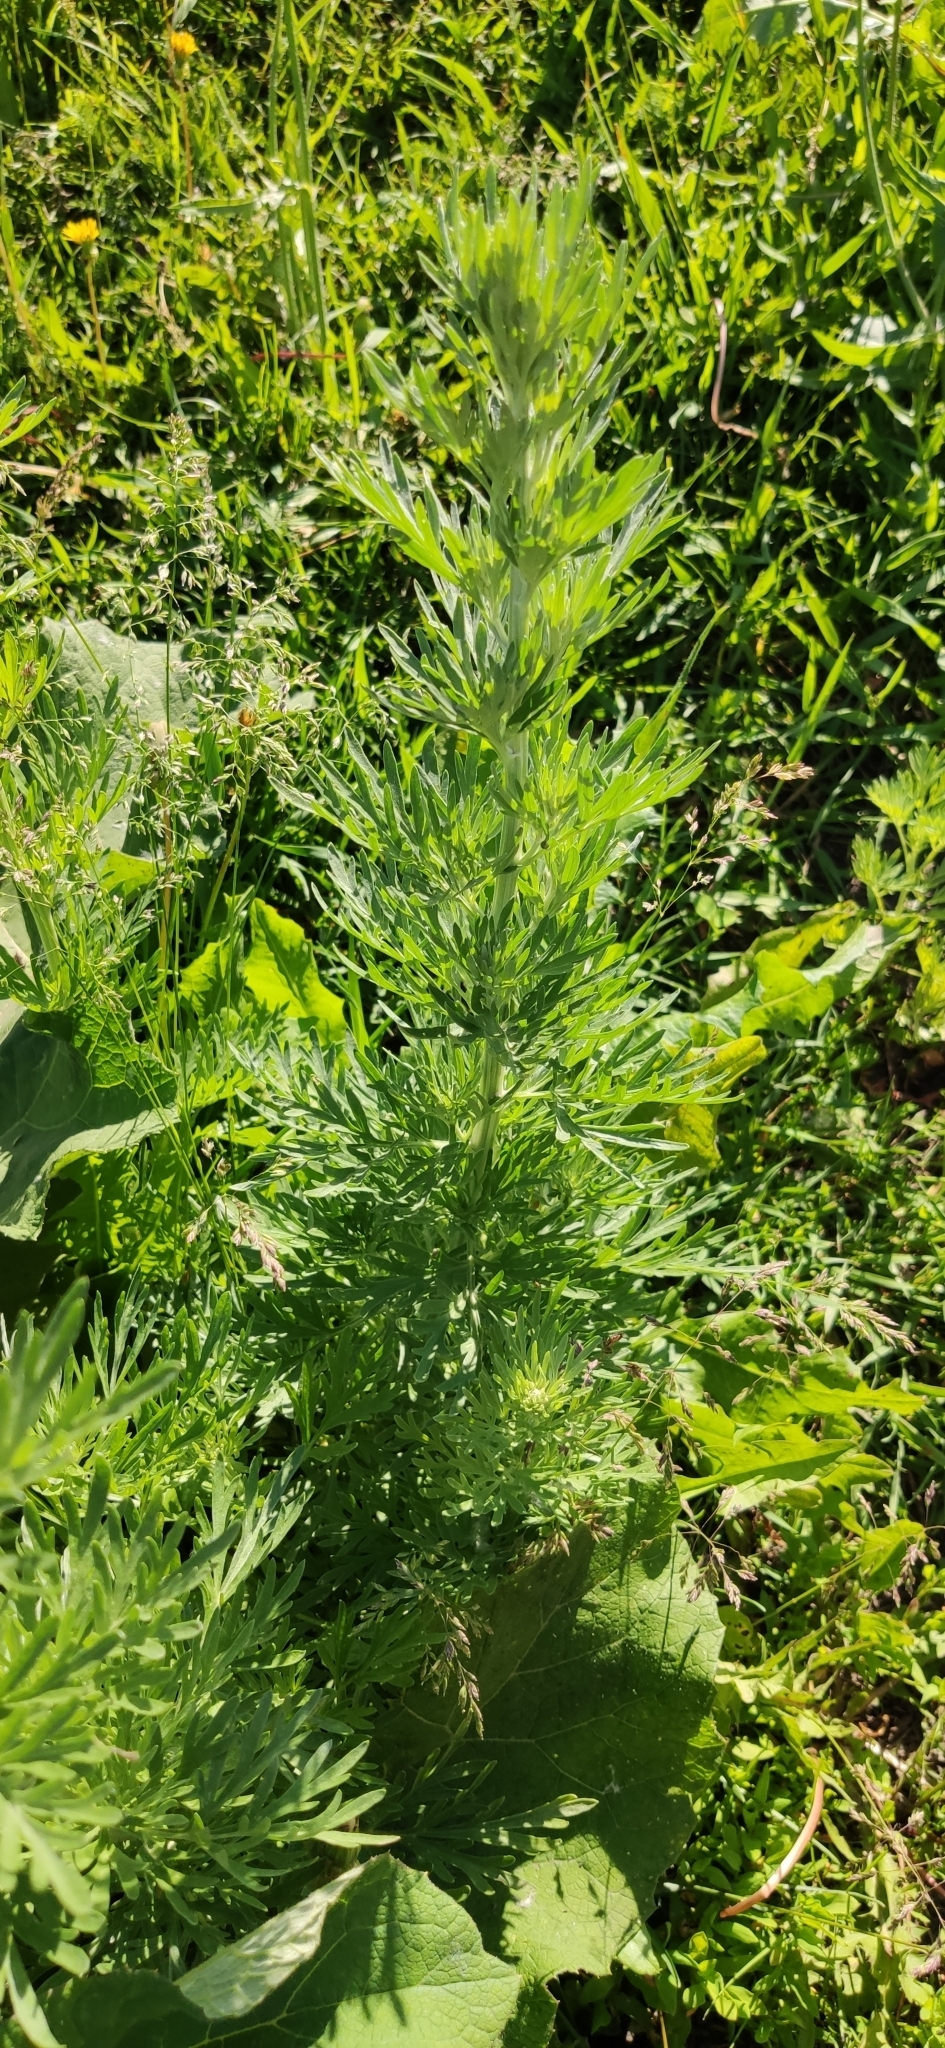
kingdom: Plantae
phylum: Tracheophyta
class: Magnoliopsida
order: Asterales
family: Asteraceae
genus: Artemisia
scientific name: Artemisia vulgaris
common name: Mugwort
